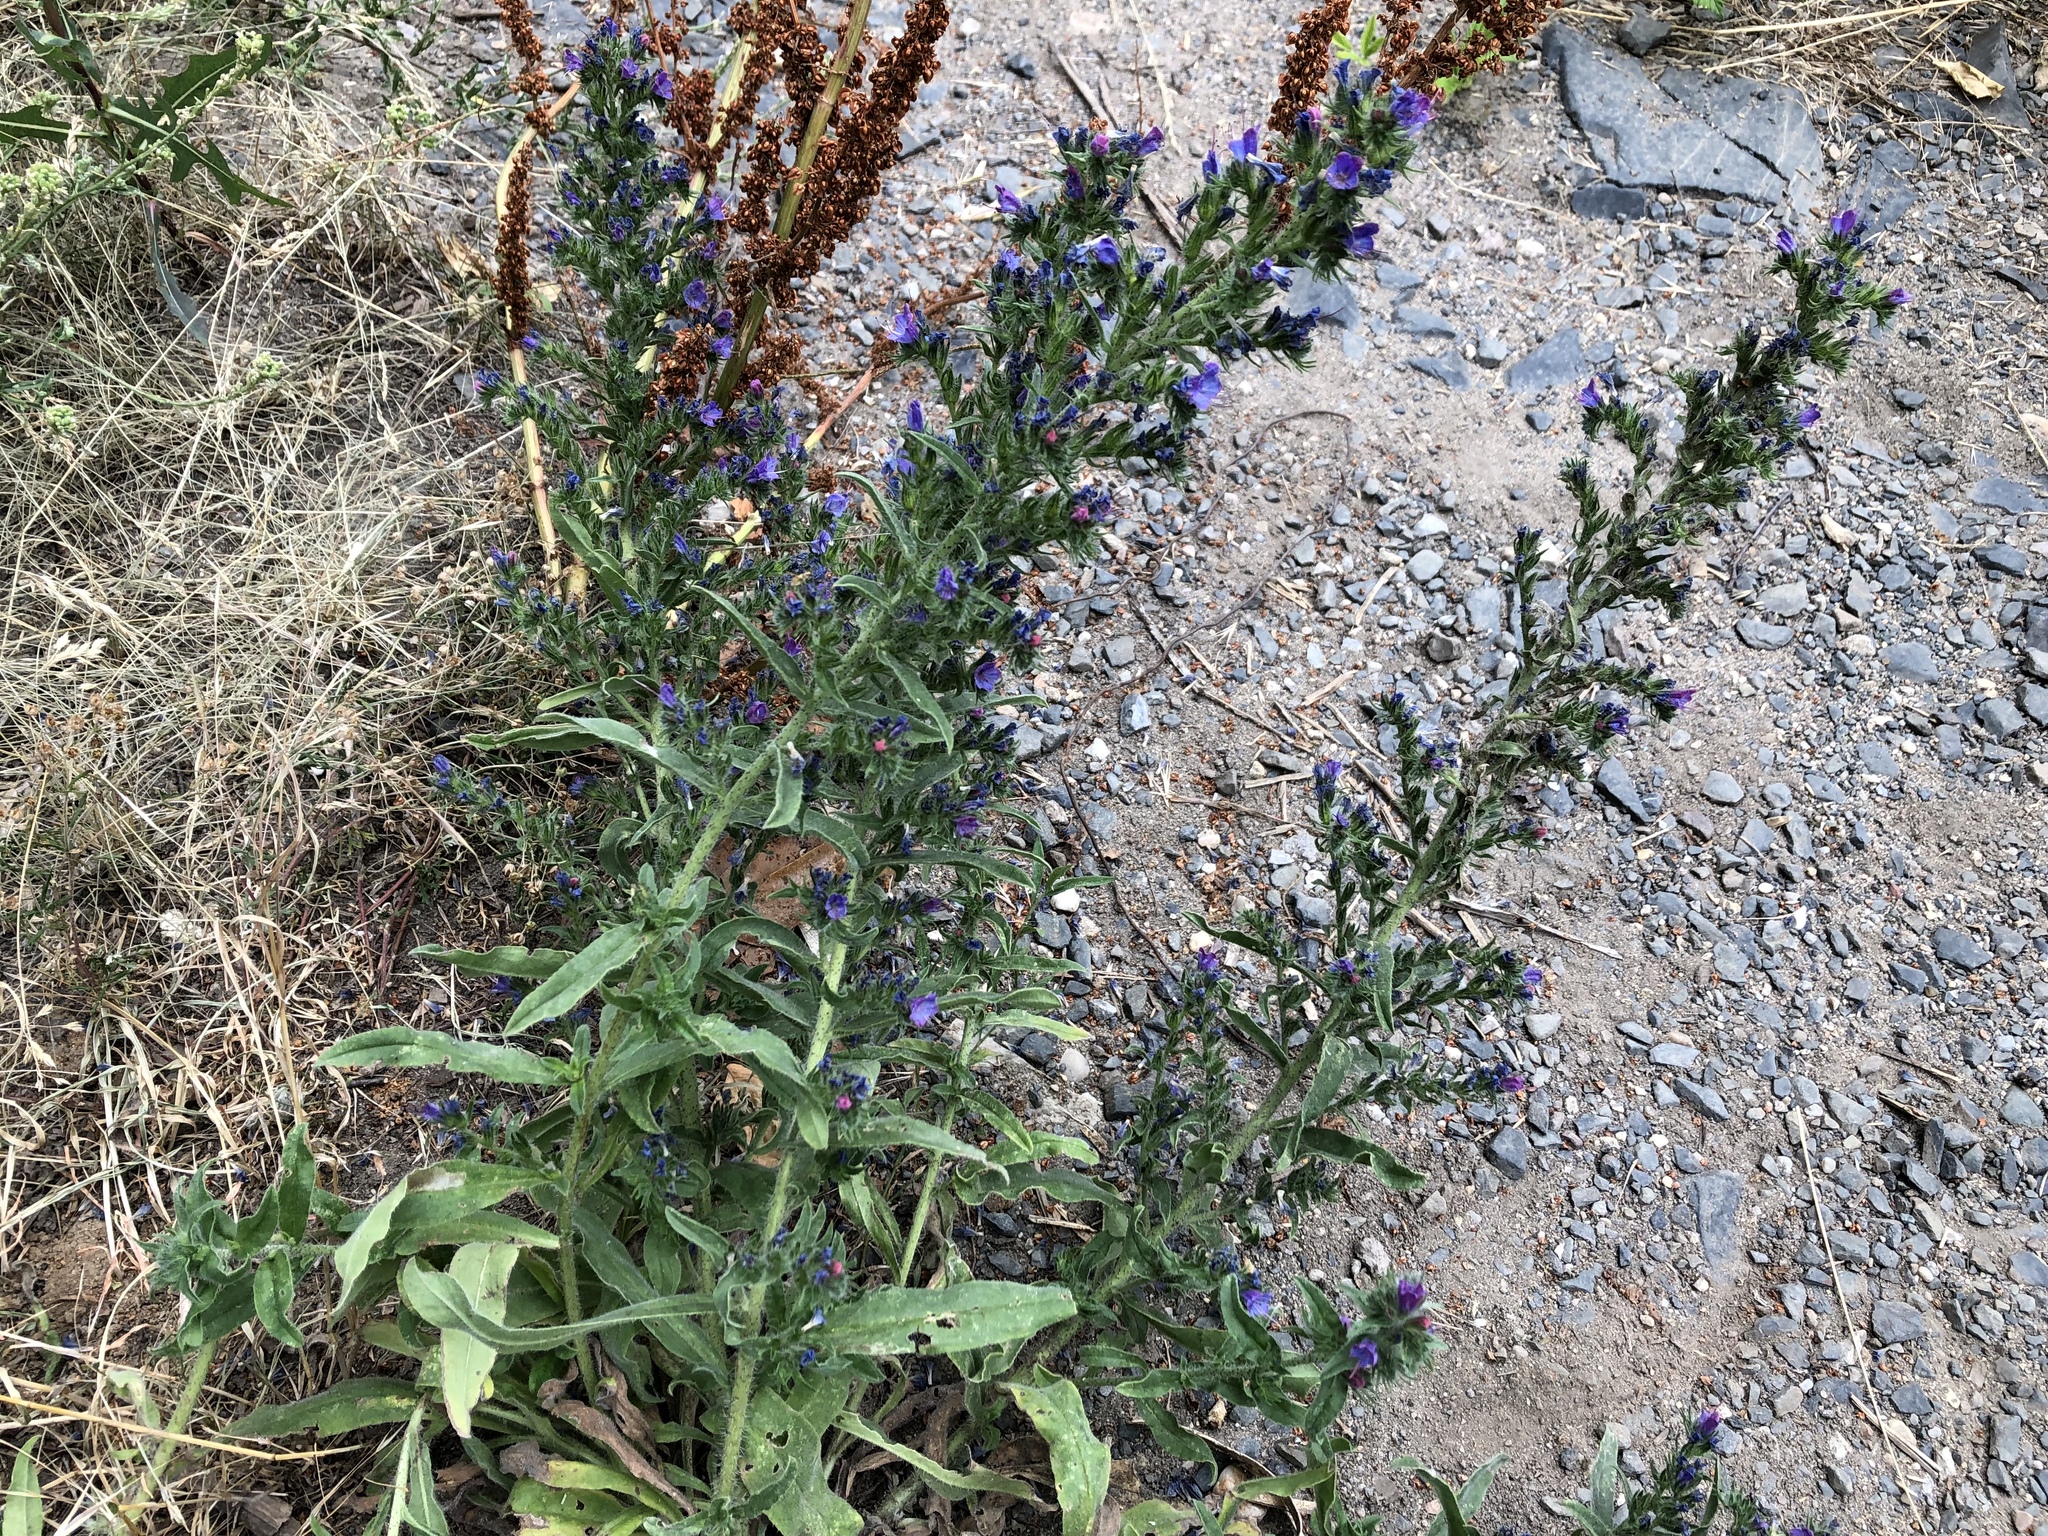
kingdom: Plantae
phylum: Tracheophyta
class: Magnoliopsida
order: Boraginales
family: Boraginaceae
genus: Echium
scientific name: Echium vulgare
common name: Common viper's bugloss
